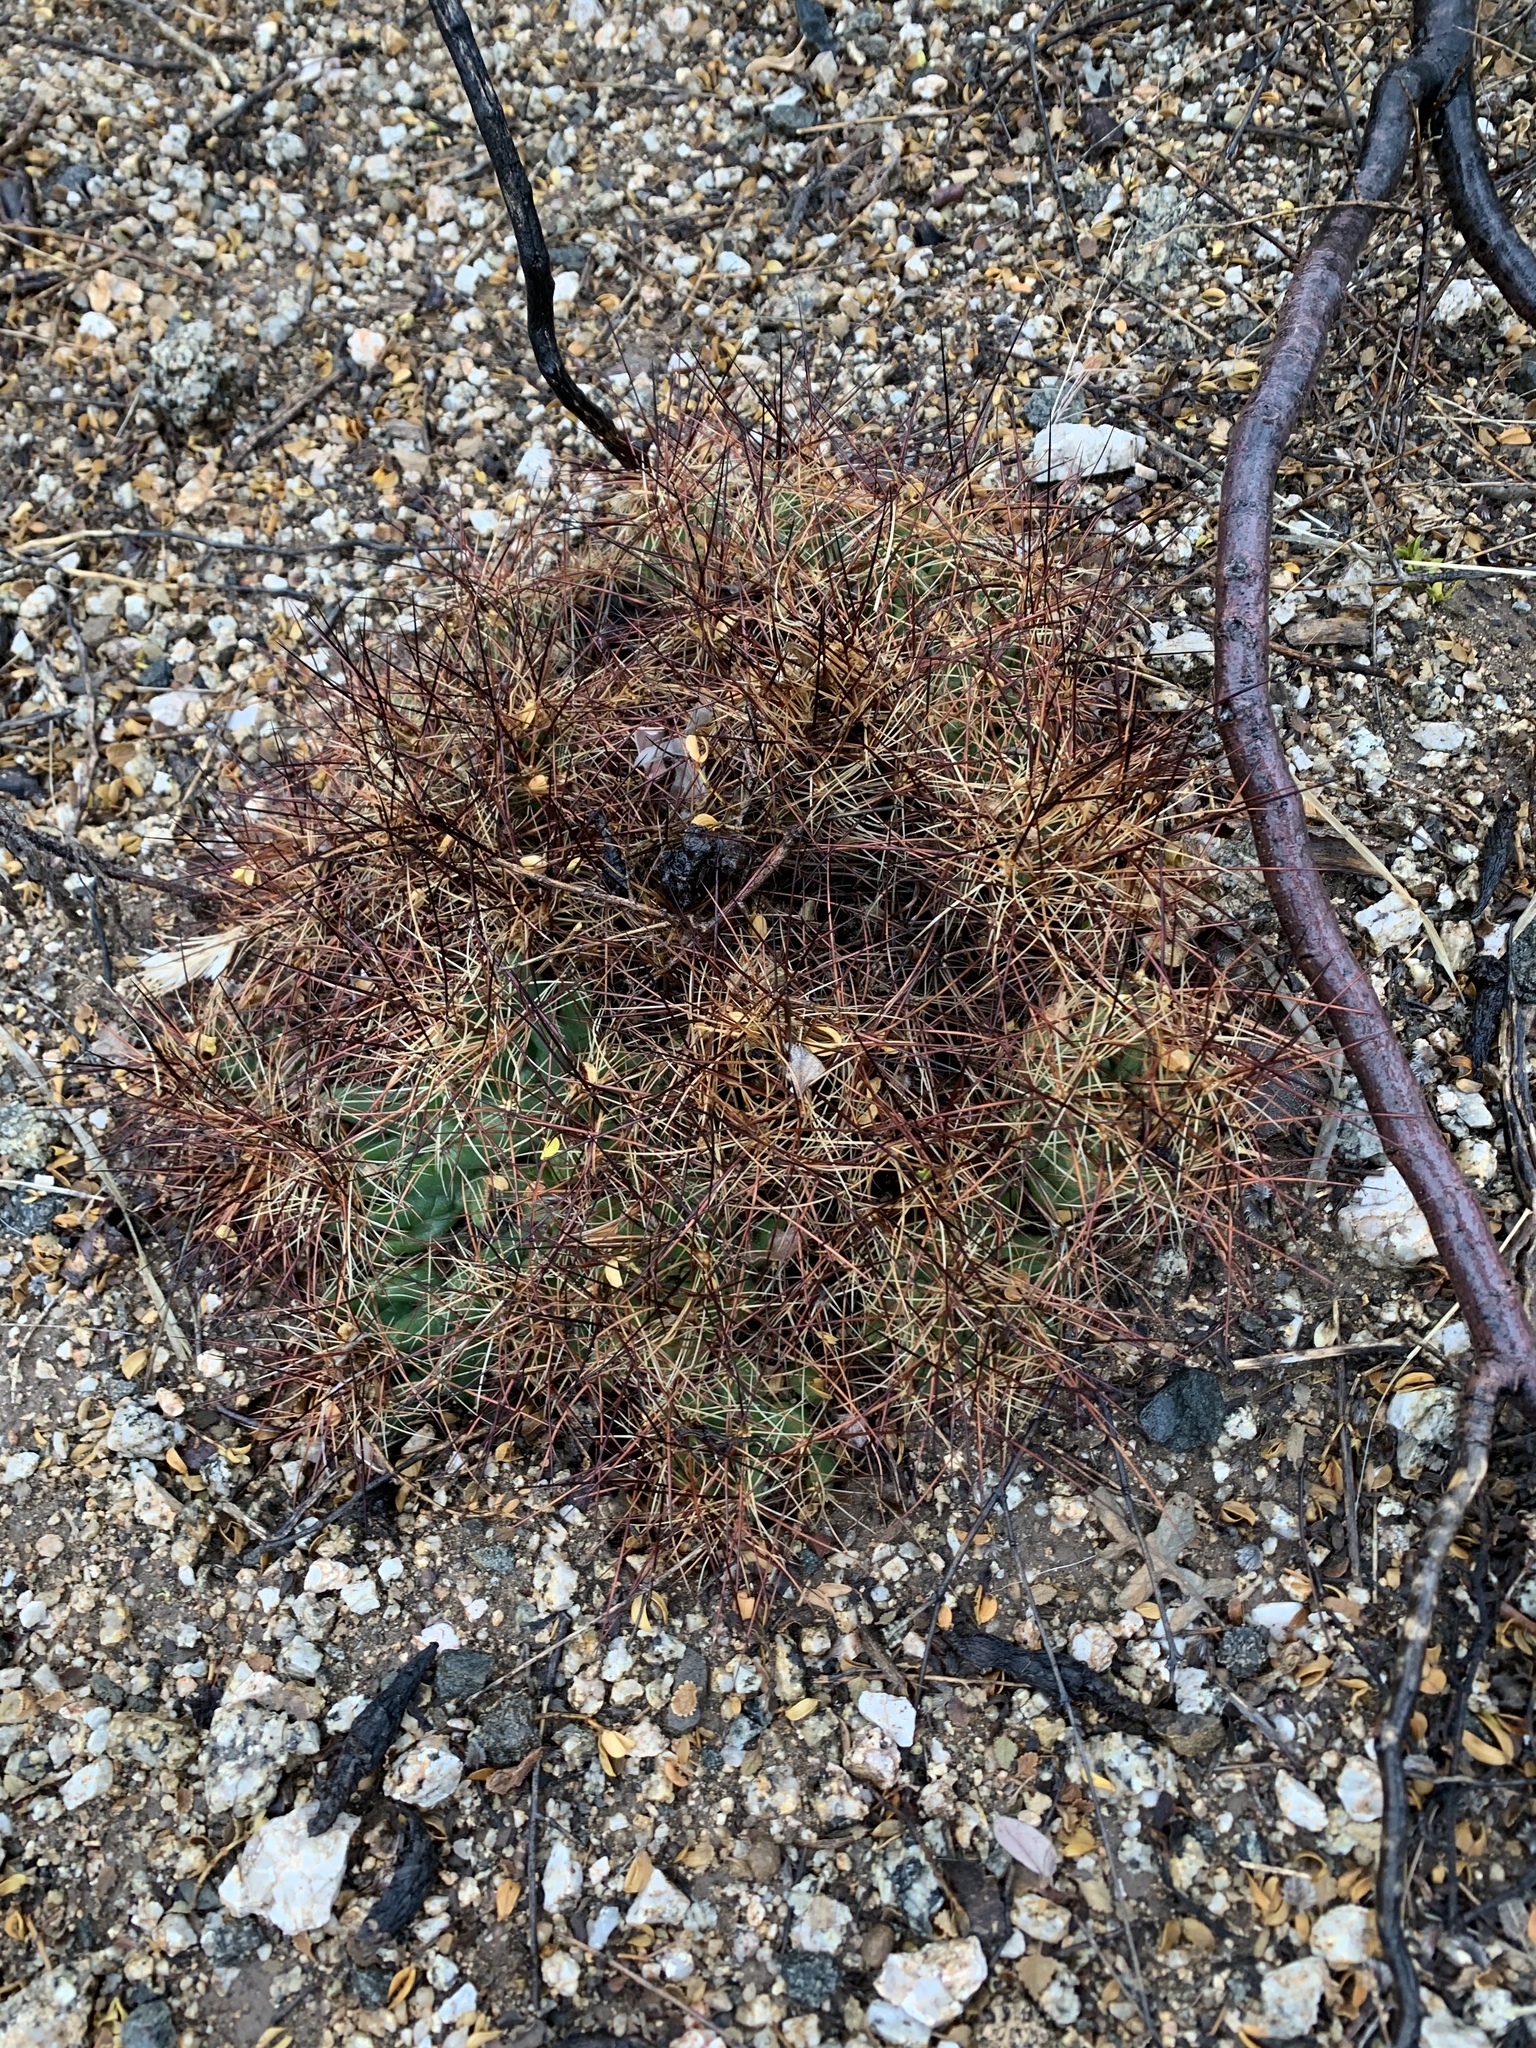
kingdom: Plantae
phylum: Tracheophyta
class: Magnoliopsida
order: Caryophyllales
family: Cactaceae
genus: Coryphantha
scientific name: Coryphantha macromeris
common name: Nipple beehive cactus
